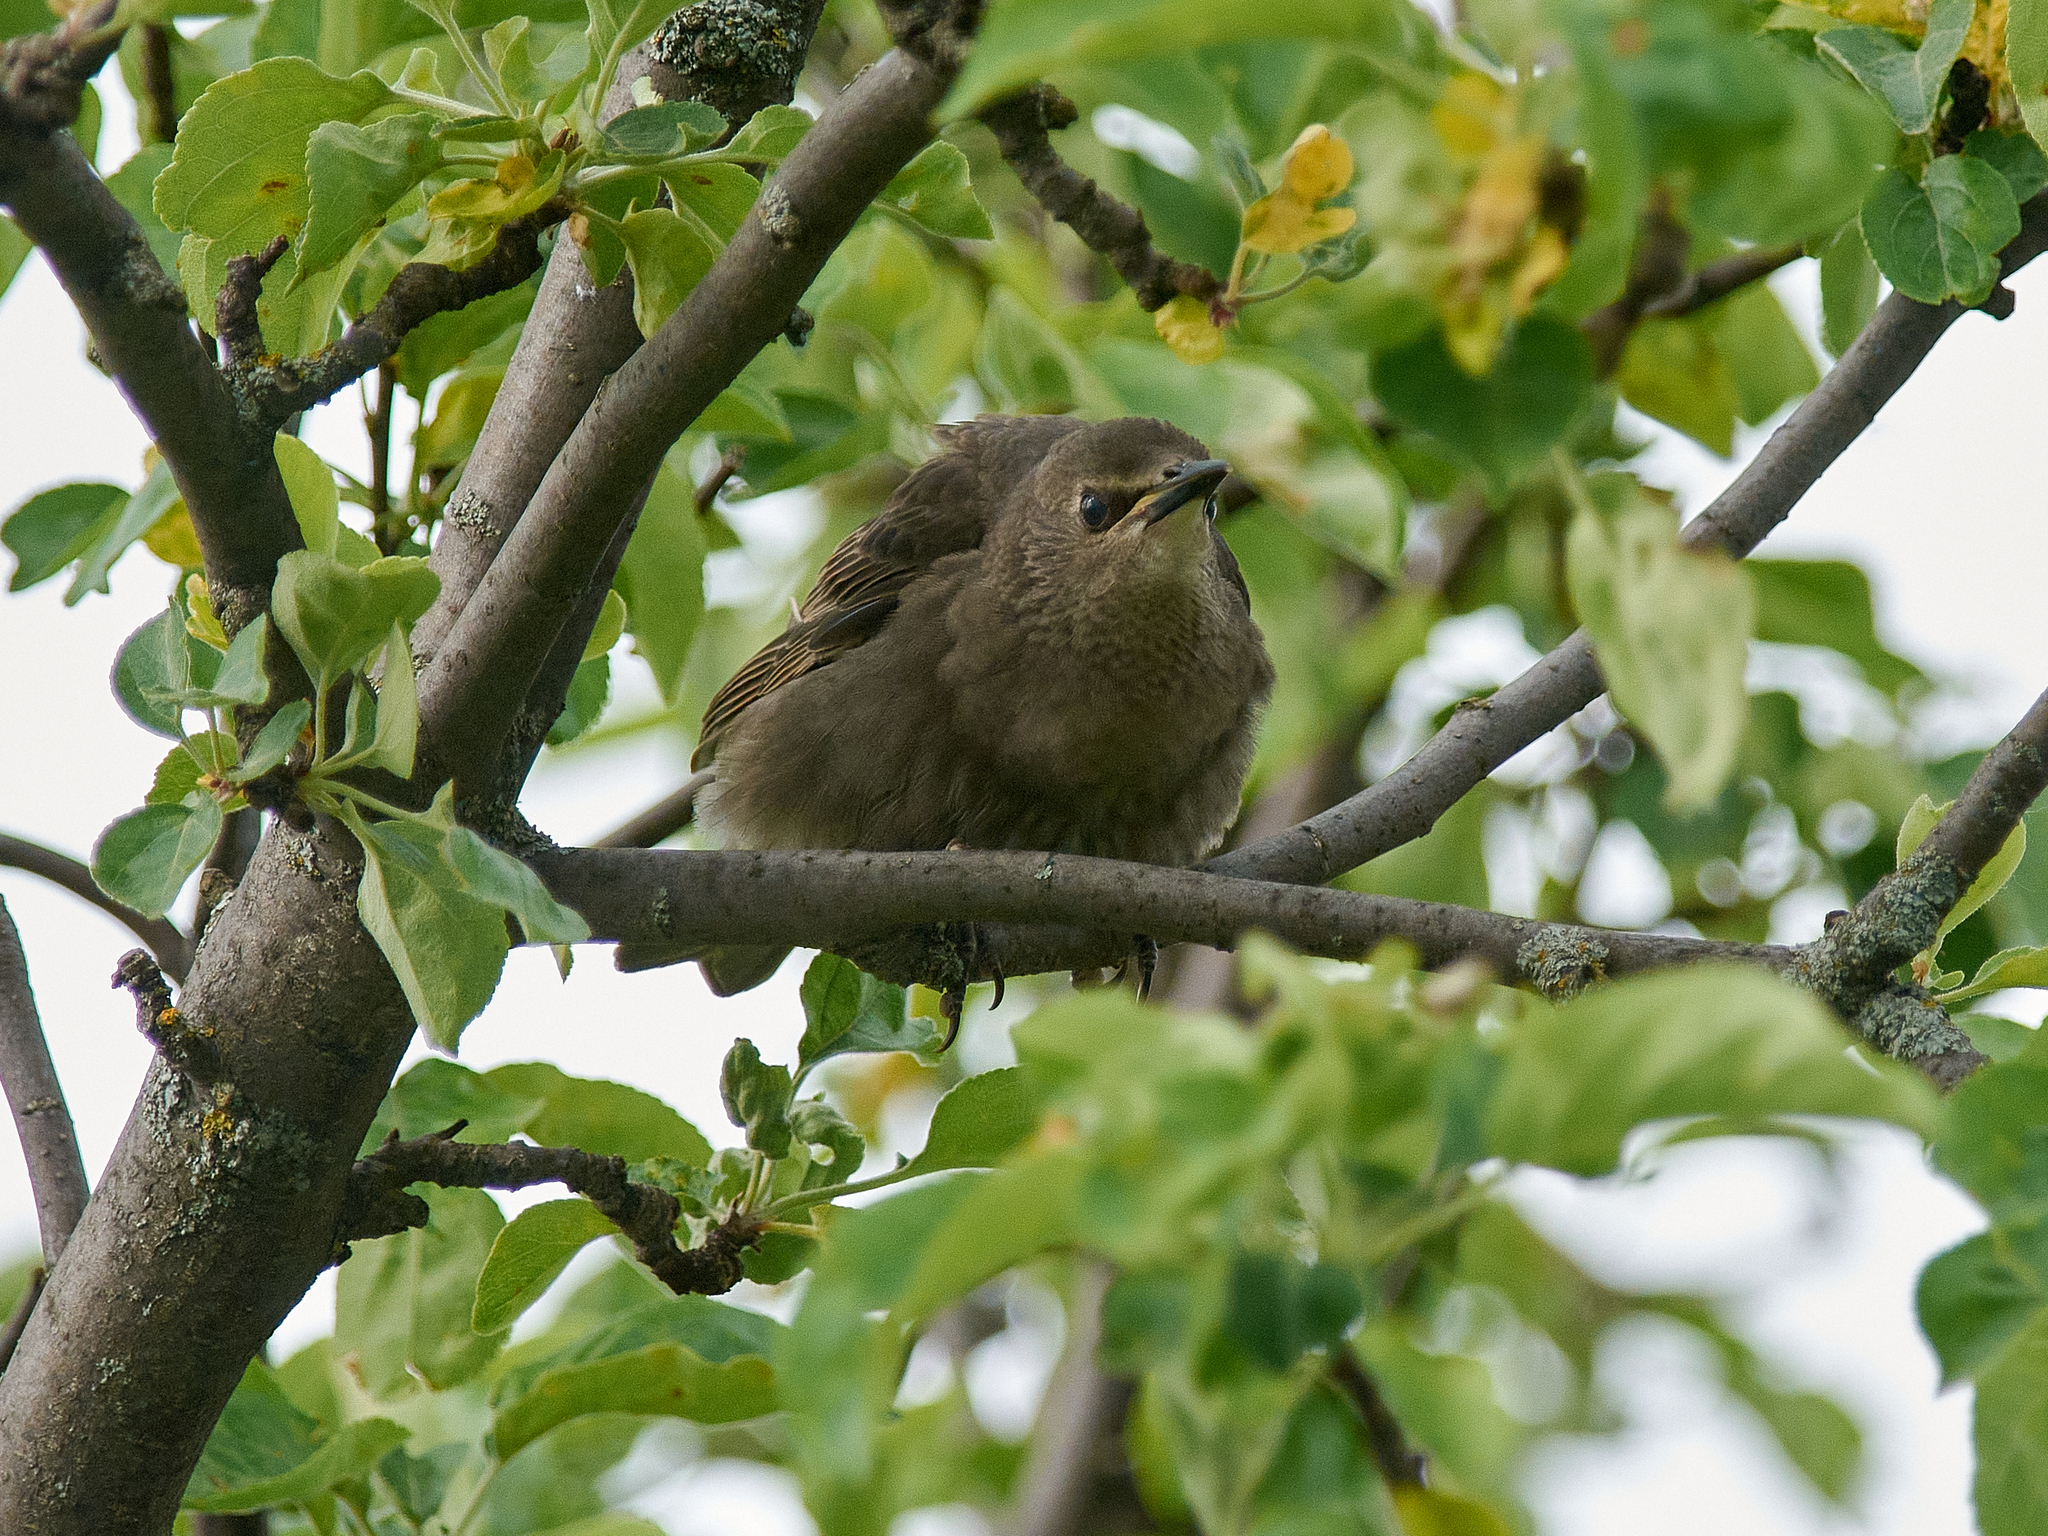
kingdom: Animalia
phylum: Chordata
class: Aves
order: Passeriformes
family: Sturnidae
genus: Sturnus
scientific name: Sturnus vulgaris
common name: Common starling
